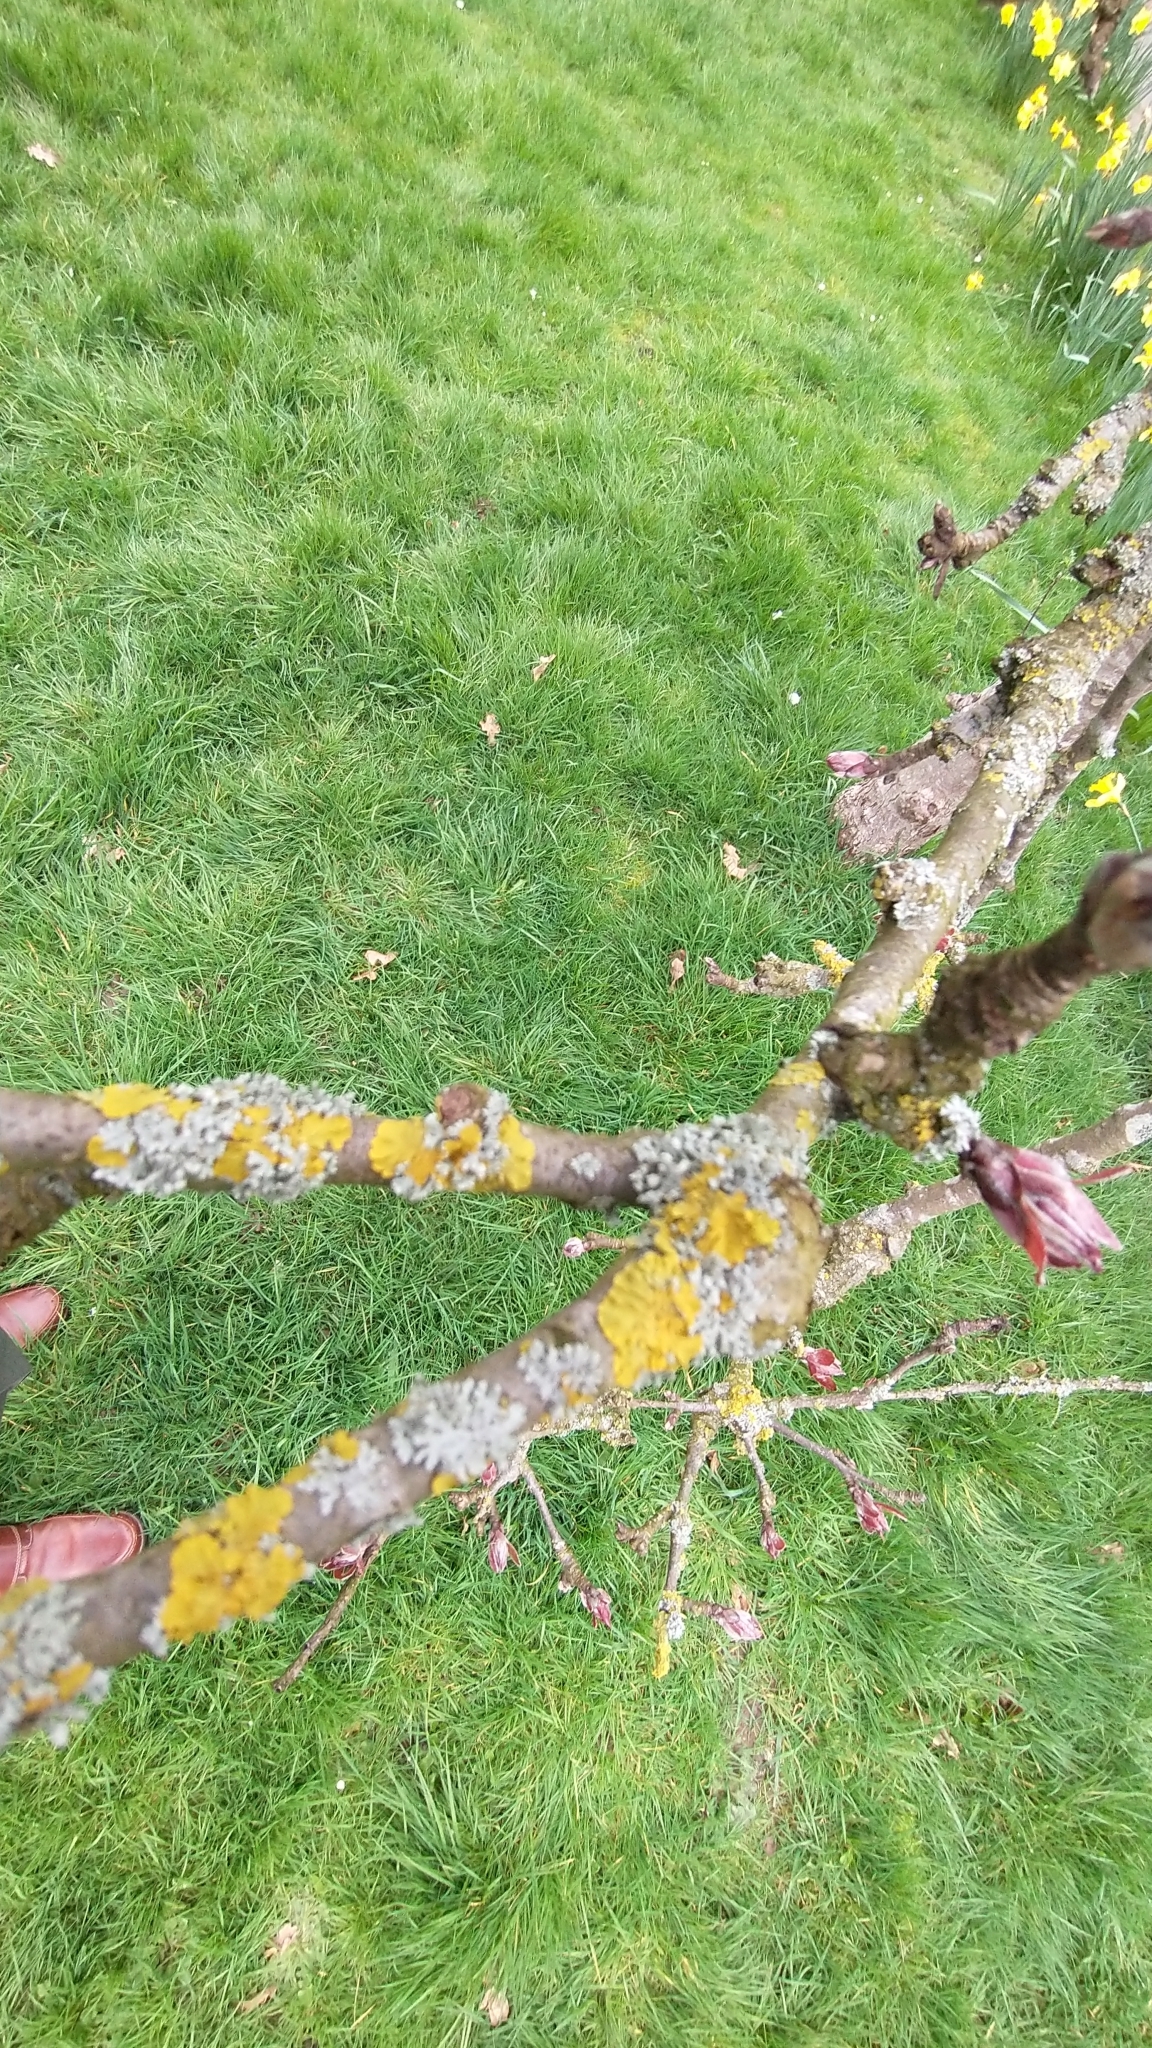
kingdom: Fungi
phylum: Ascomycota
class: Lecanoromycetes
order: Teloschistales
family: Teloschistaceae
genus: Xanthoria
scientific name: Xanthoria parietina
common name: Common orange lichen
